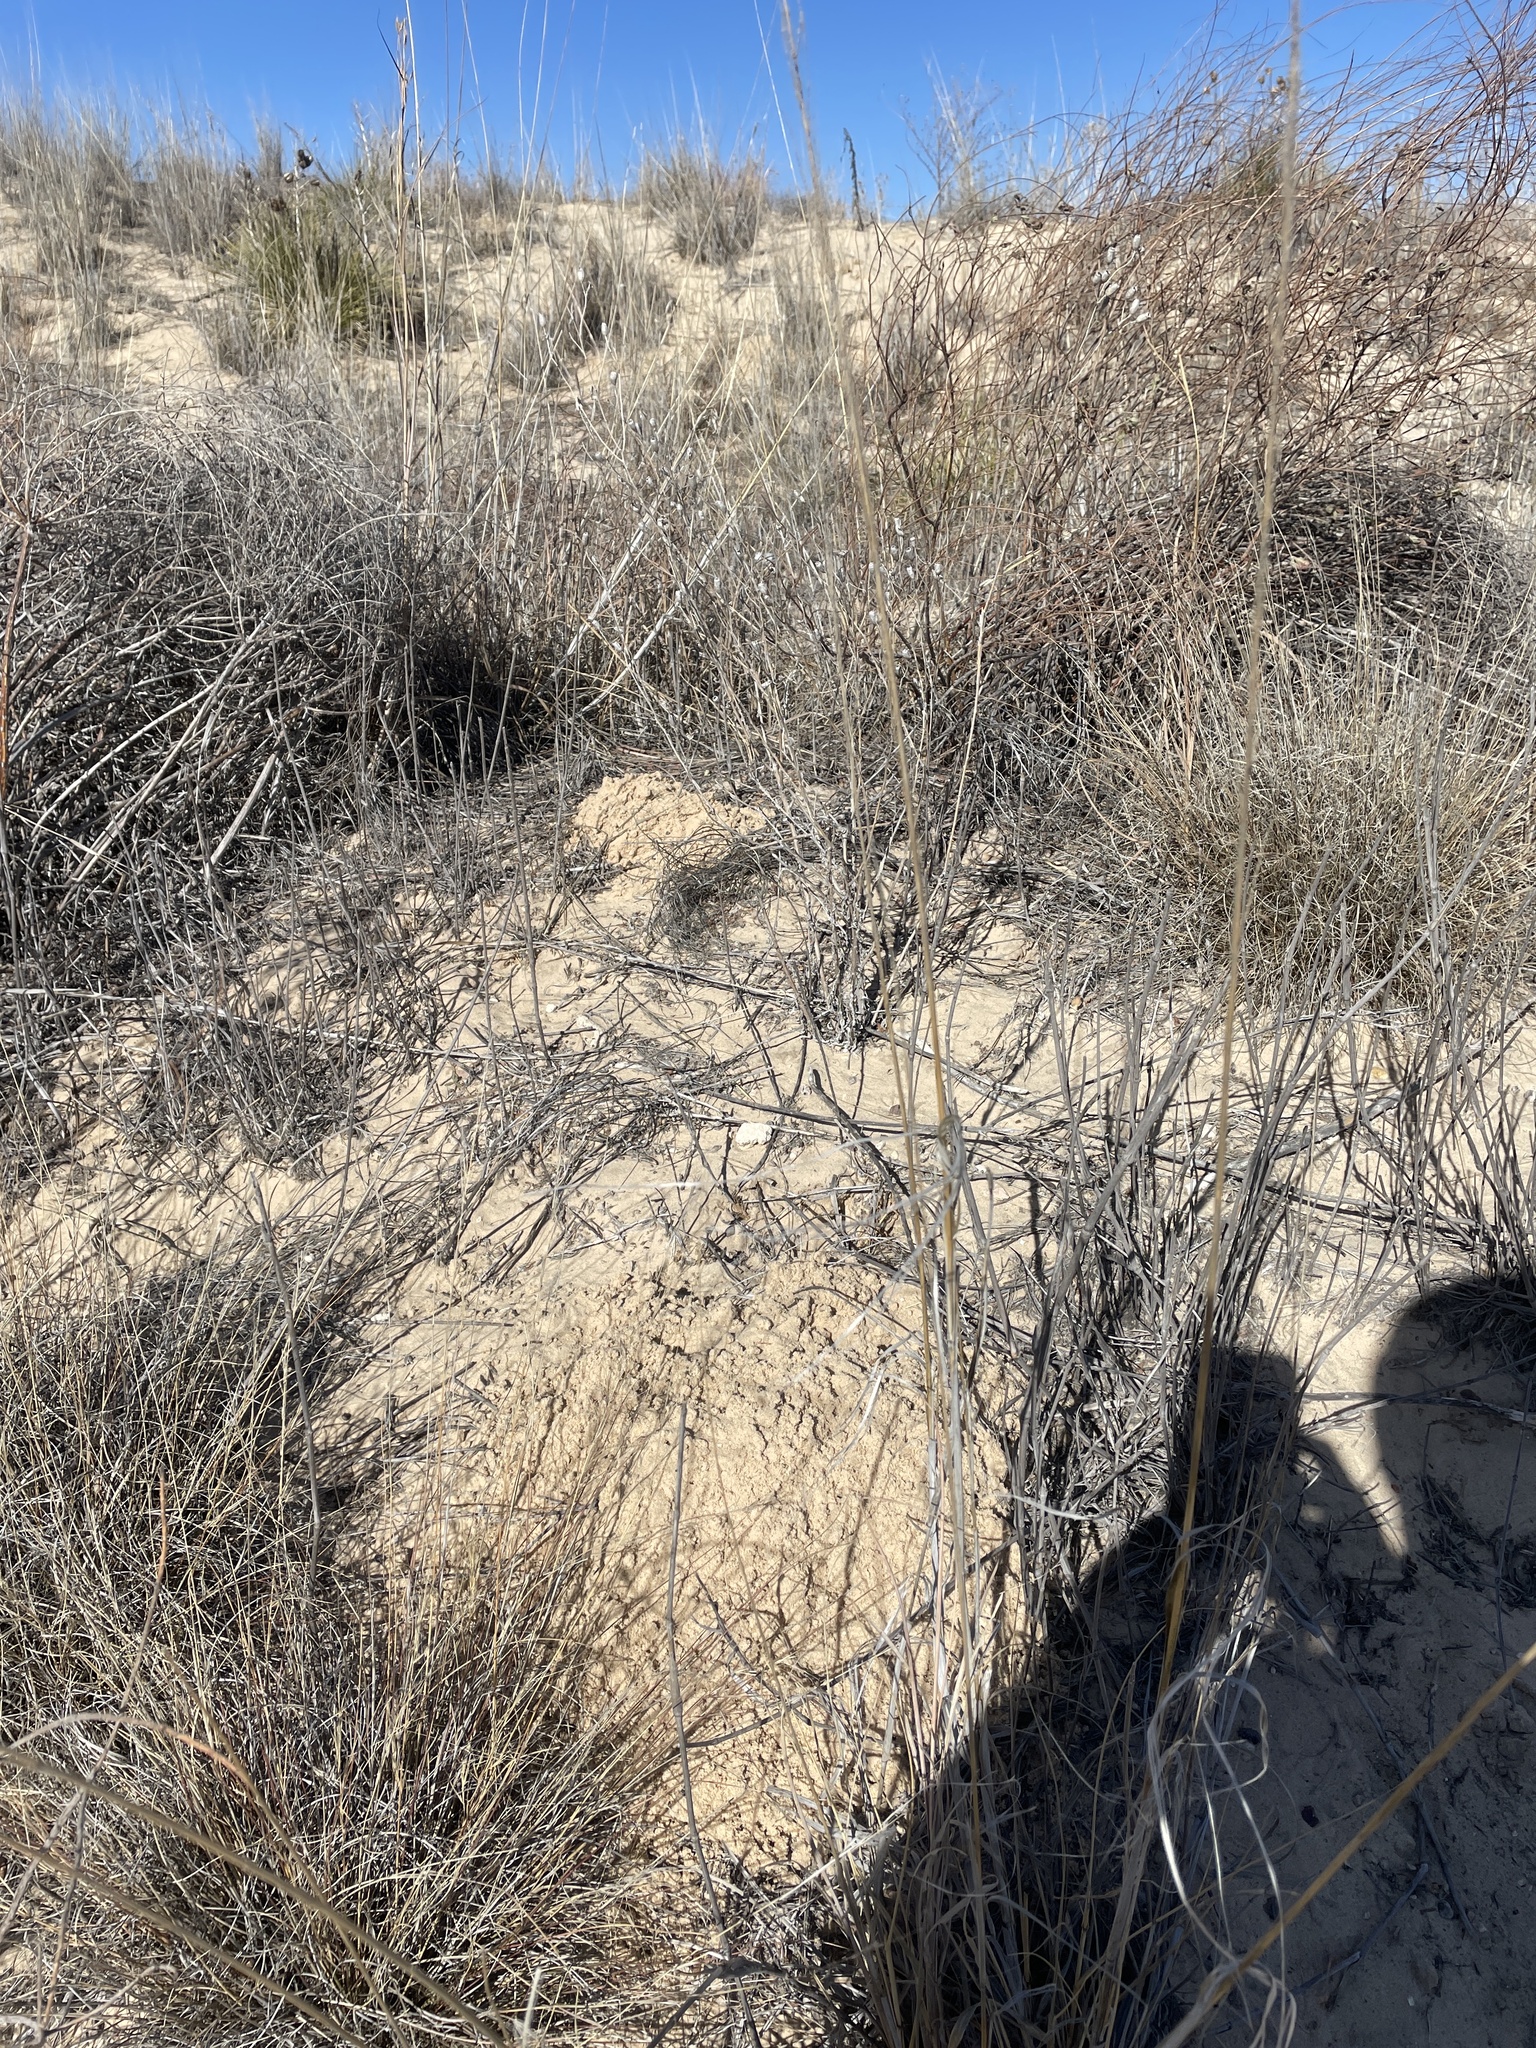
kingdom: Animalia
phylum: Chordata
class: Mammalia
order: Rodentia
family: Geomyidae
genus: Geomys
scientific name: Geomys knoxjonesi
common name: Knox jones's pocket gopher
